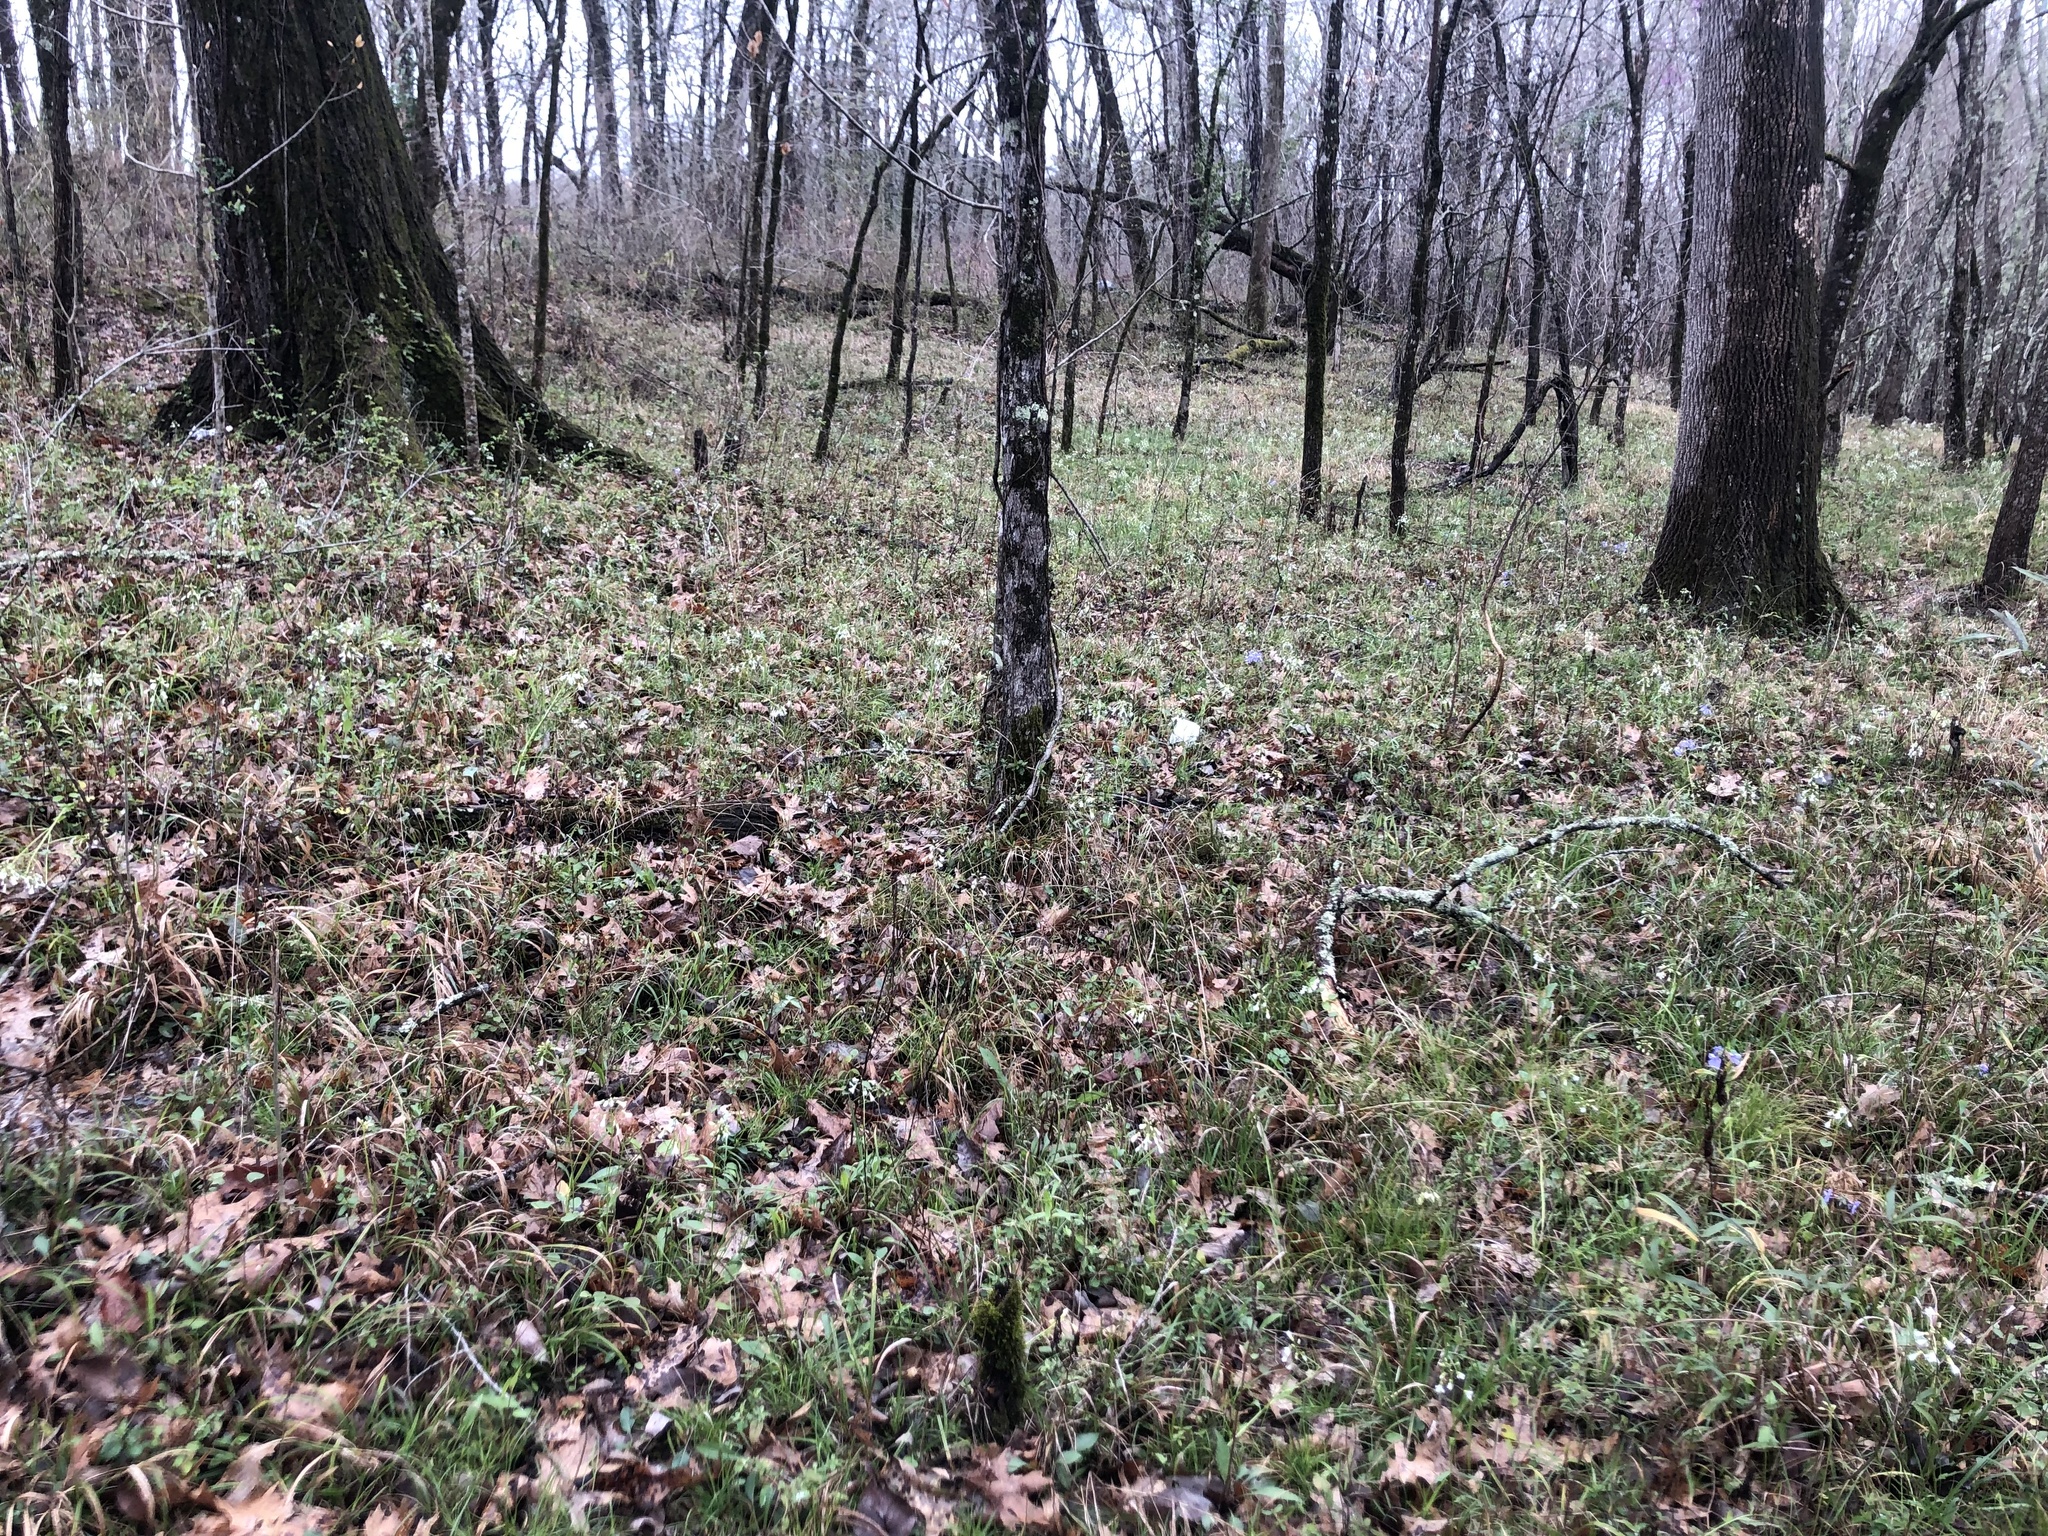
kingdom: Plantae
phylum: Tracheophyta
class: Magnoliopsida
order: Fagales
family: Fagaceae
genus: Quercus
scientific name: Quercus muehlenbergii
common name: Chinkapin oak
